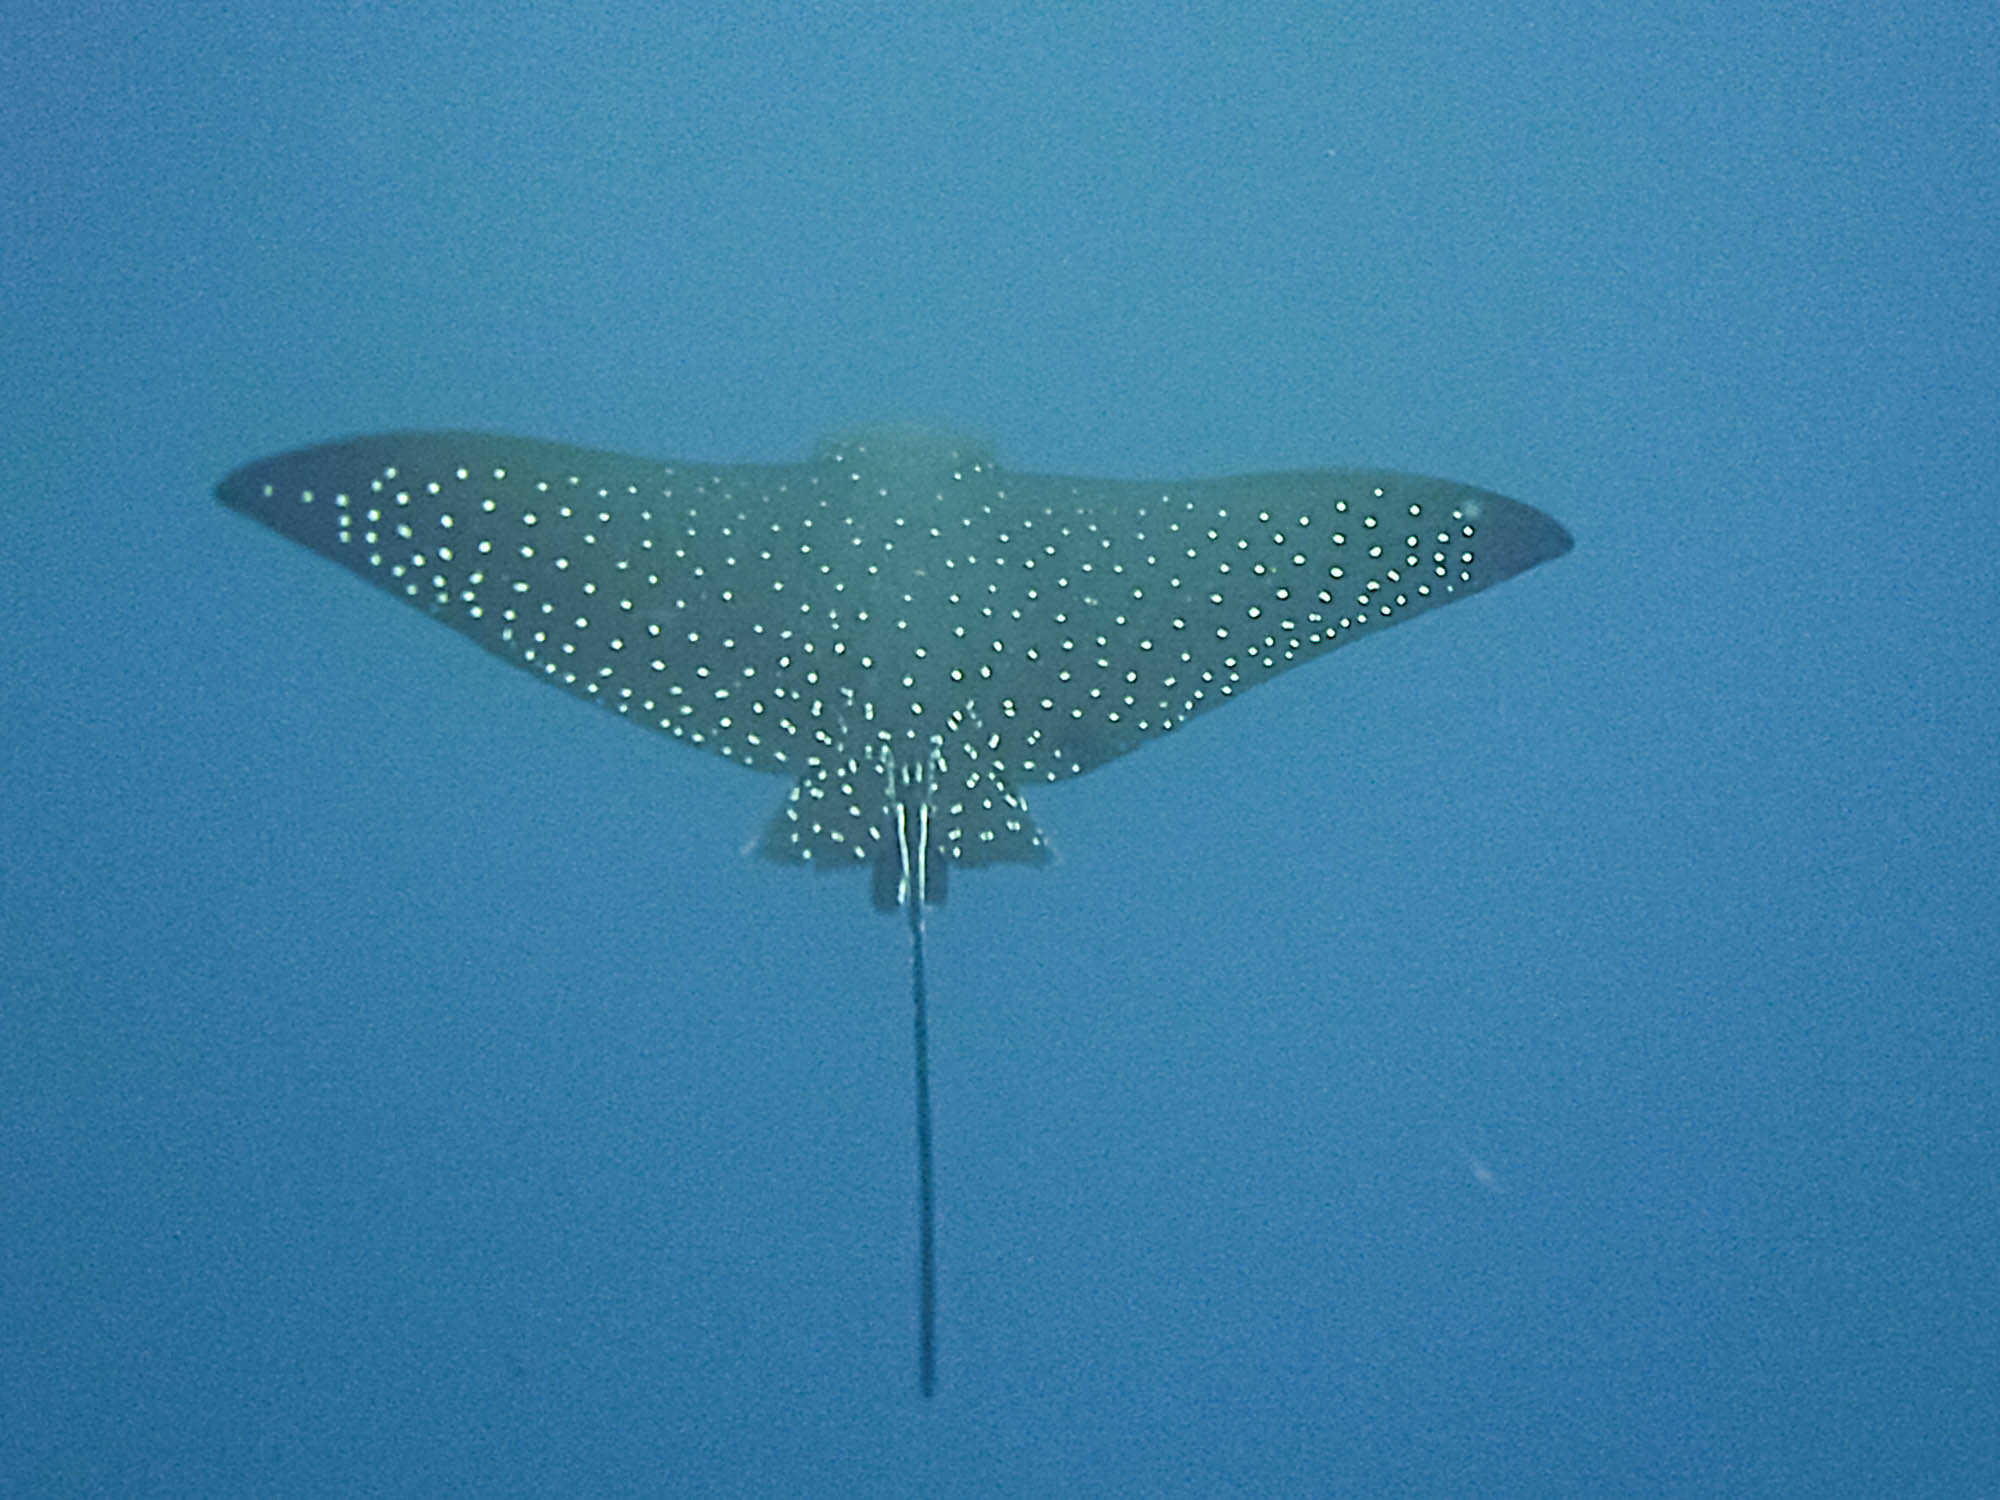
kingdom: Animalia
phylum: Chordata
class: Elasmobranchii
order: Myliobatiformes
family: Myliobatidae
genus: Aetobatus
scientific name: Aetobatus ocellatus
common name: Ocellated eagle ray
